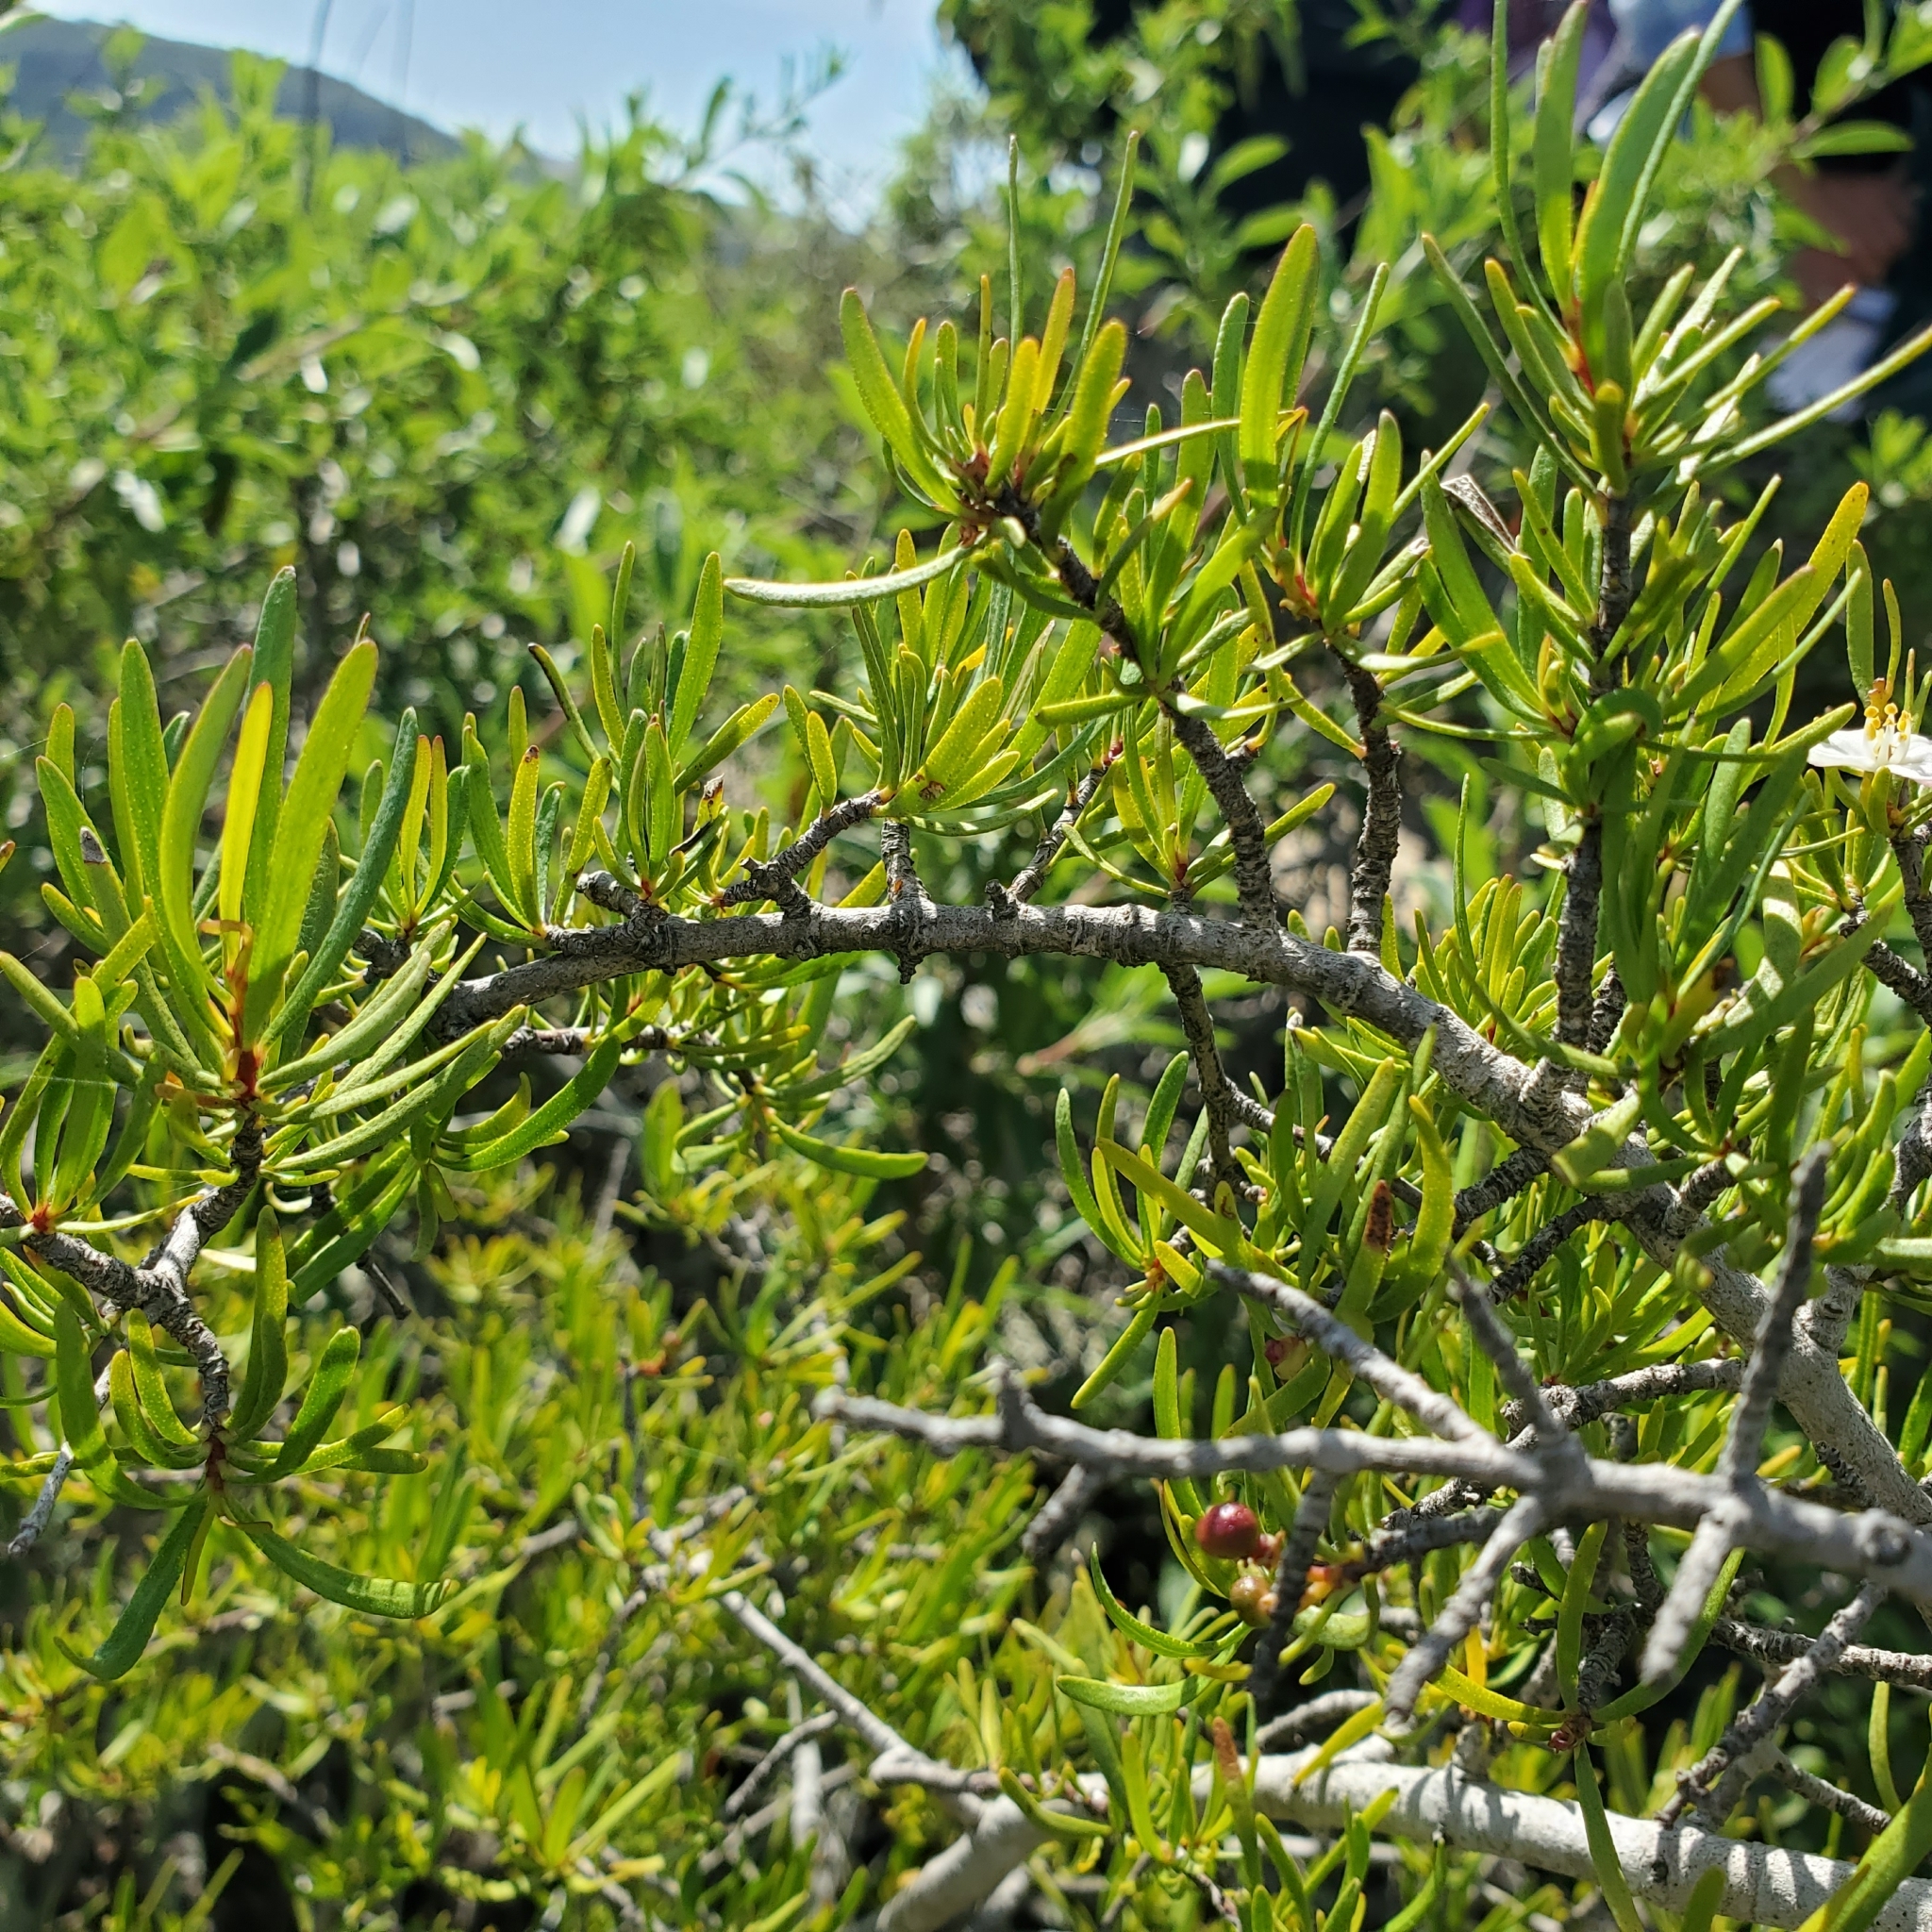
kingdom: Plantae
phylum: Tracheophyta
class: Magnoliopsida
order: Sapindales
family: Rutaceae
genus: Cneoridium
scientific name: Cneoridium dumosum
